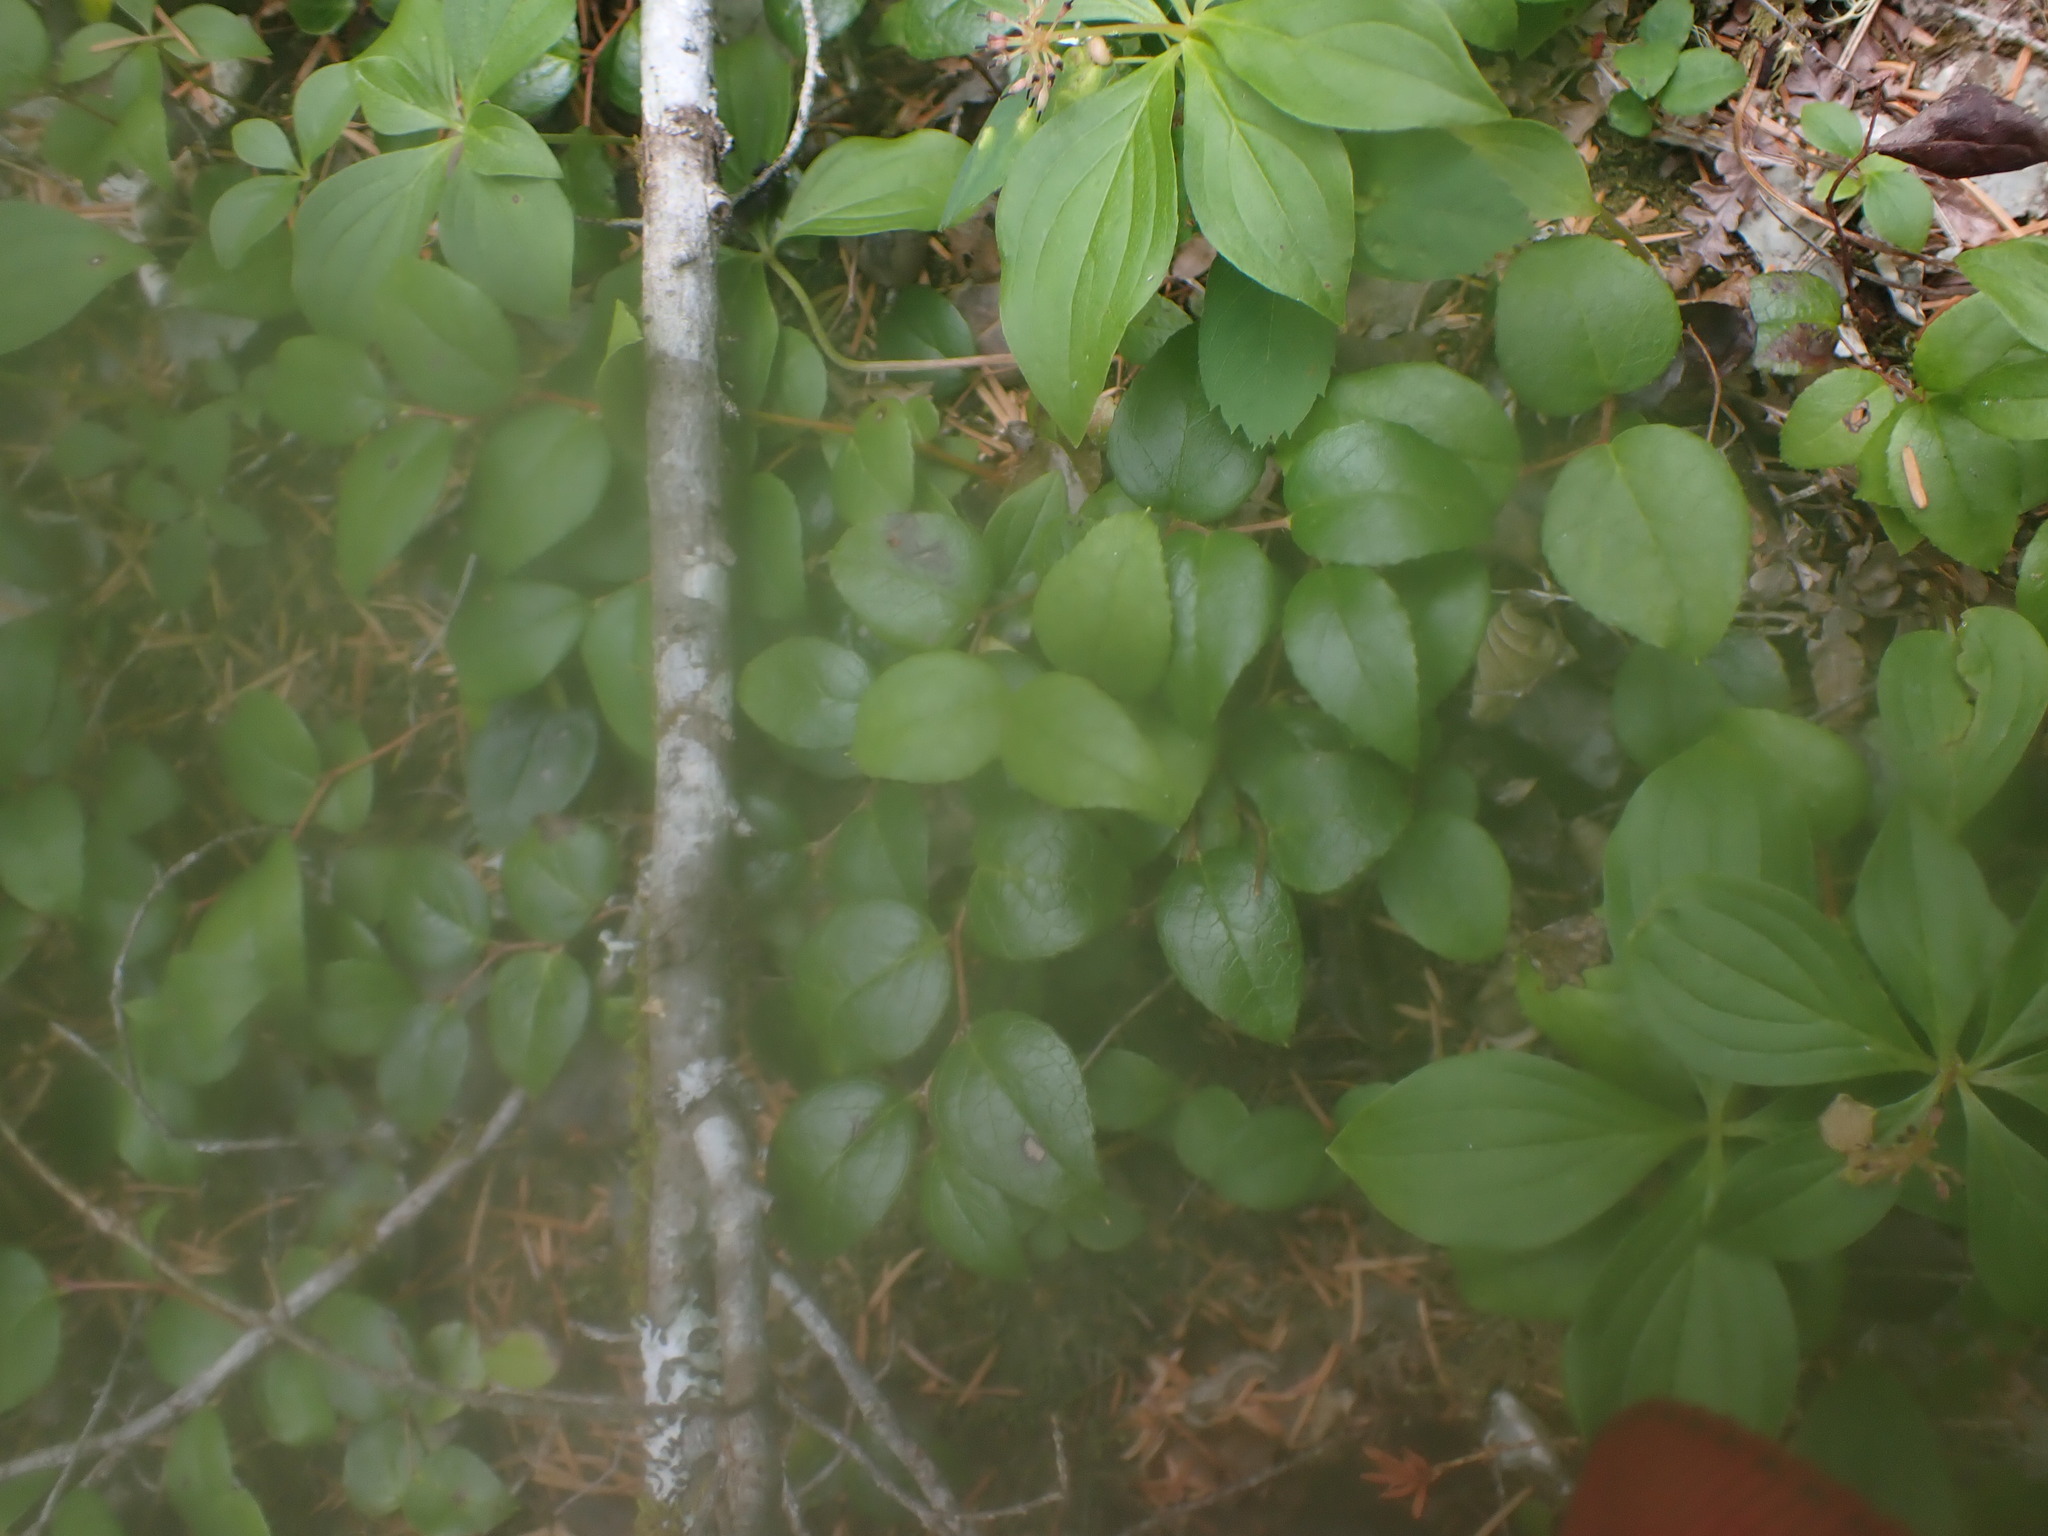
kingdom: Plantae
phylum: Tracheophyta
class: Magnoliopsida
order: Ericales
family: Ericaceae
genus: Gaultheria
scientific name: Gaultheria ovatifolia
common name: Oregon wintergreen
